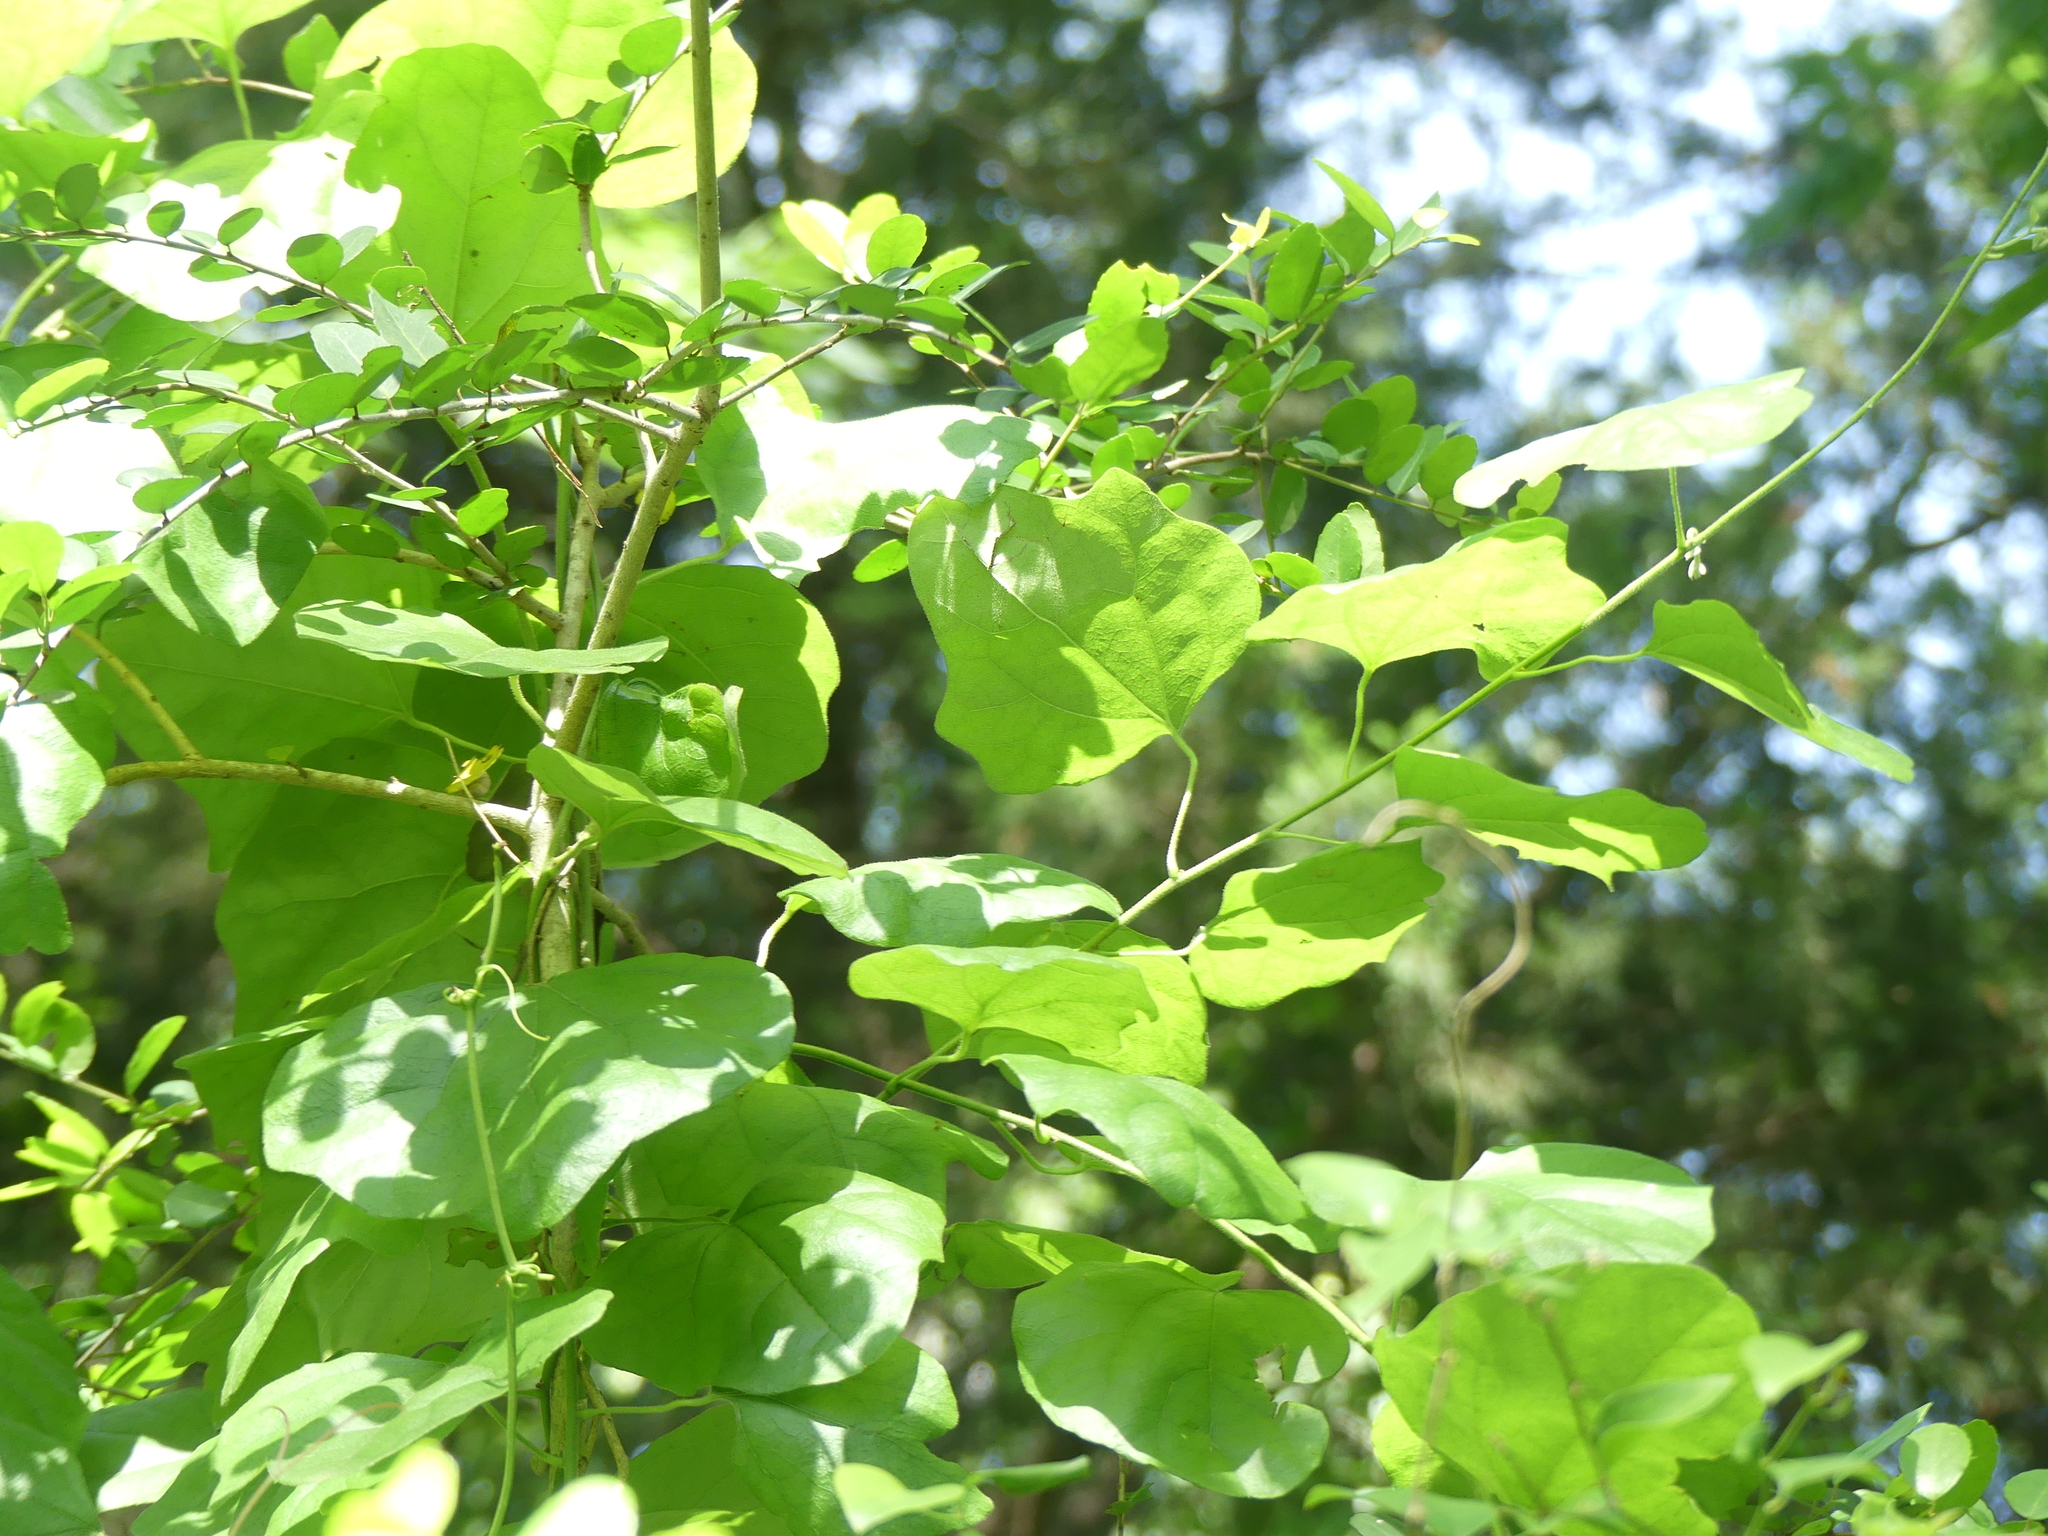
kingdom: Plantae
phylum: Tracheophyta
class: Magnoliopsida
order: Ranunculales
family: Menispermaceae
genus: Cocculus
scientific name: Cocculus carolinus
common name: Carolina moonseed
